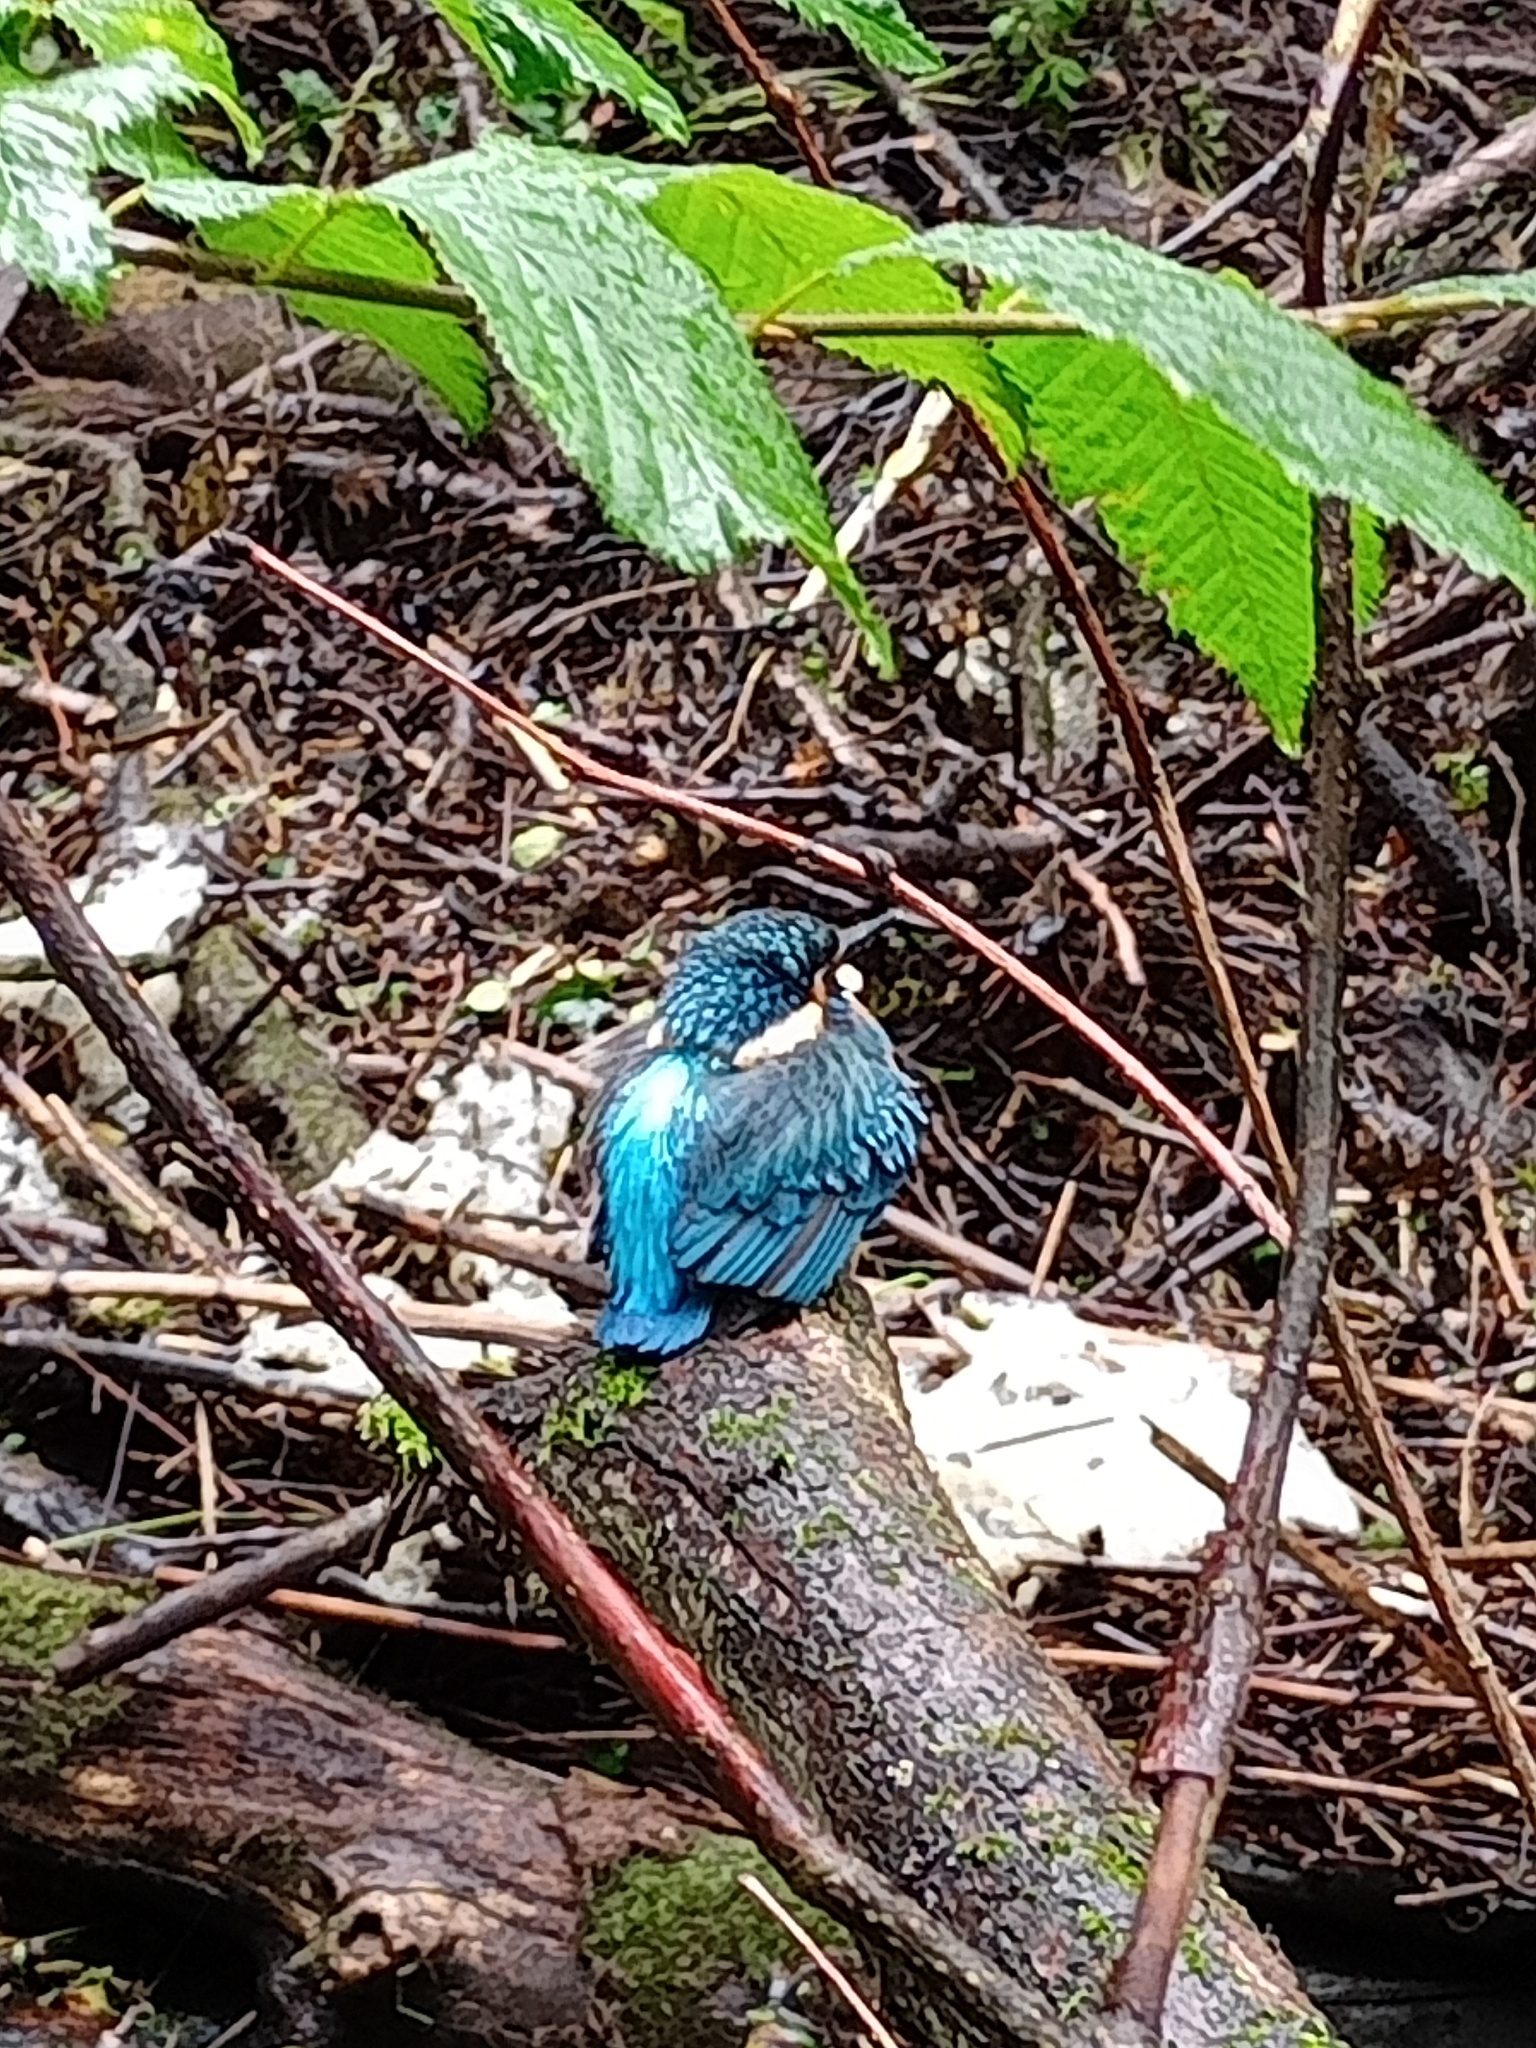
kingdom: Animalia
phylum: Chordata
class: Aves
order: Coraciiformes
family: Alcedinidae
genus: Alcedo
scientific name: Alcedo atthis
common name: Common kingfisher
